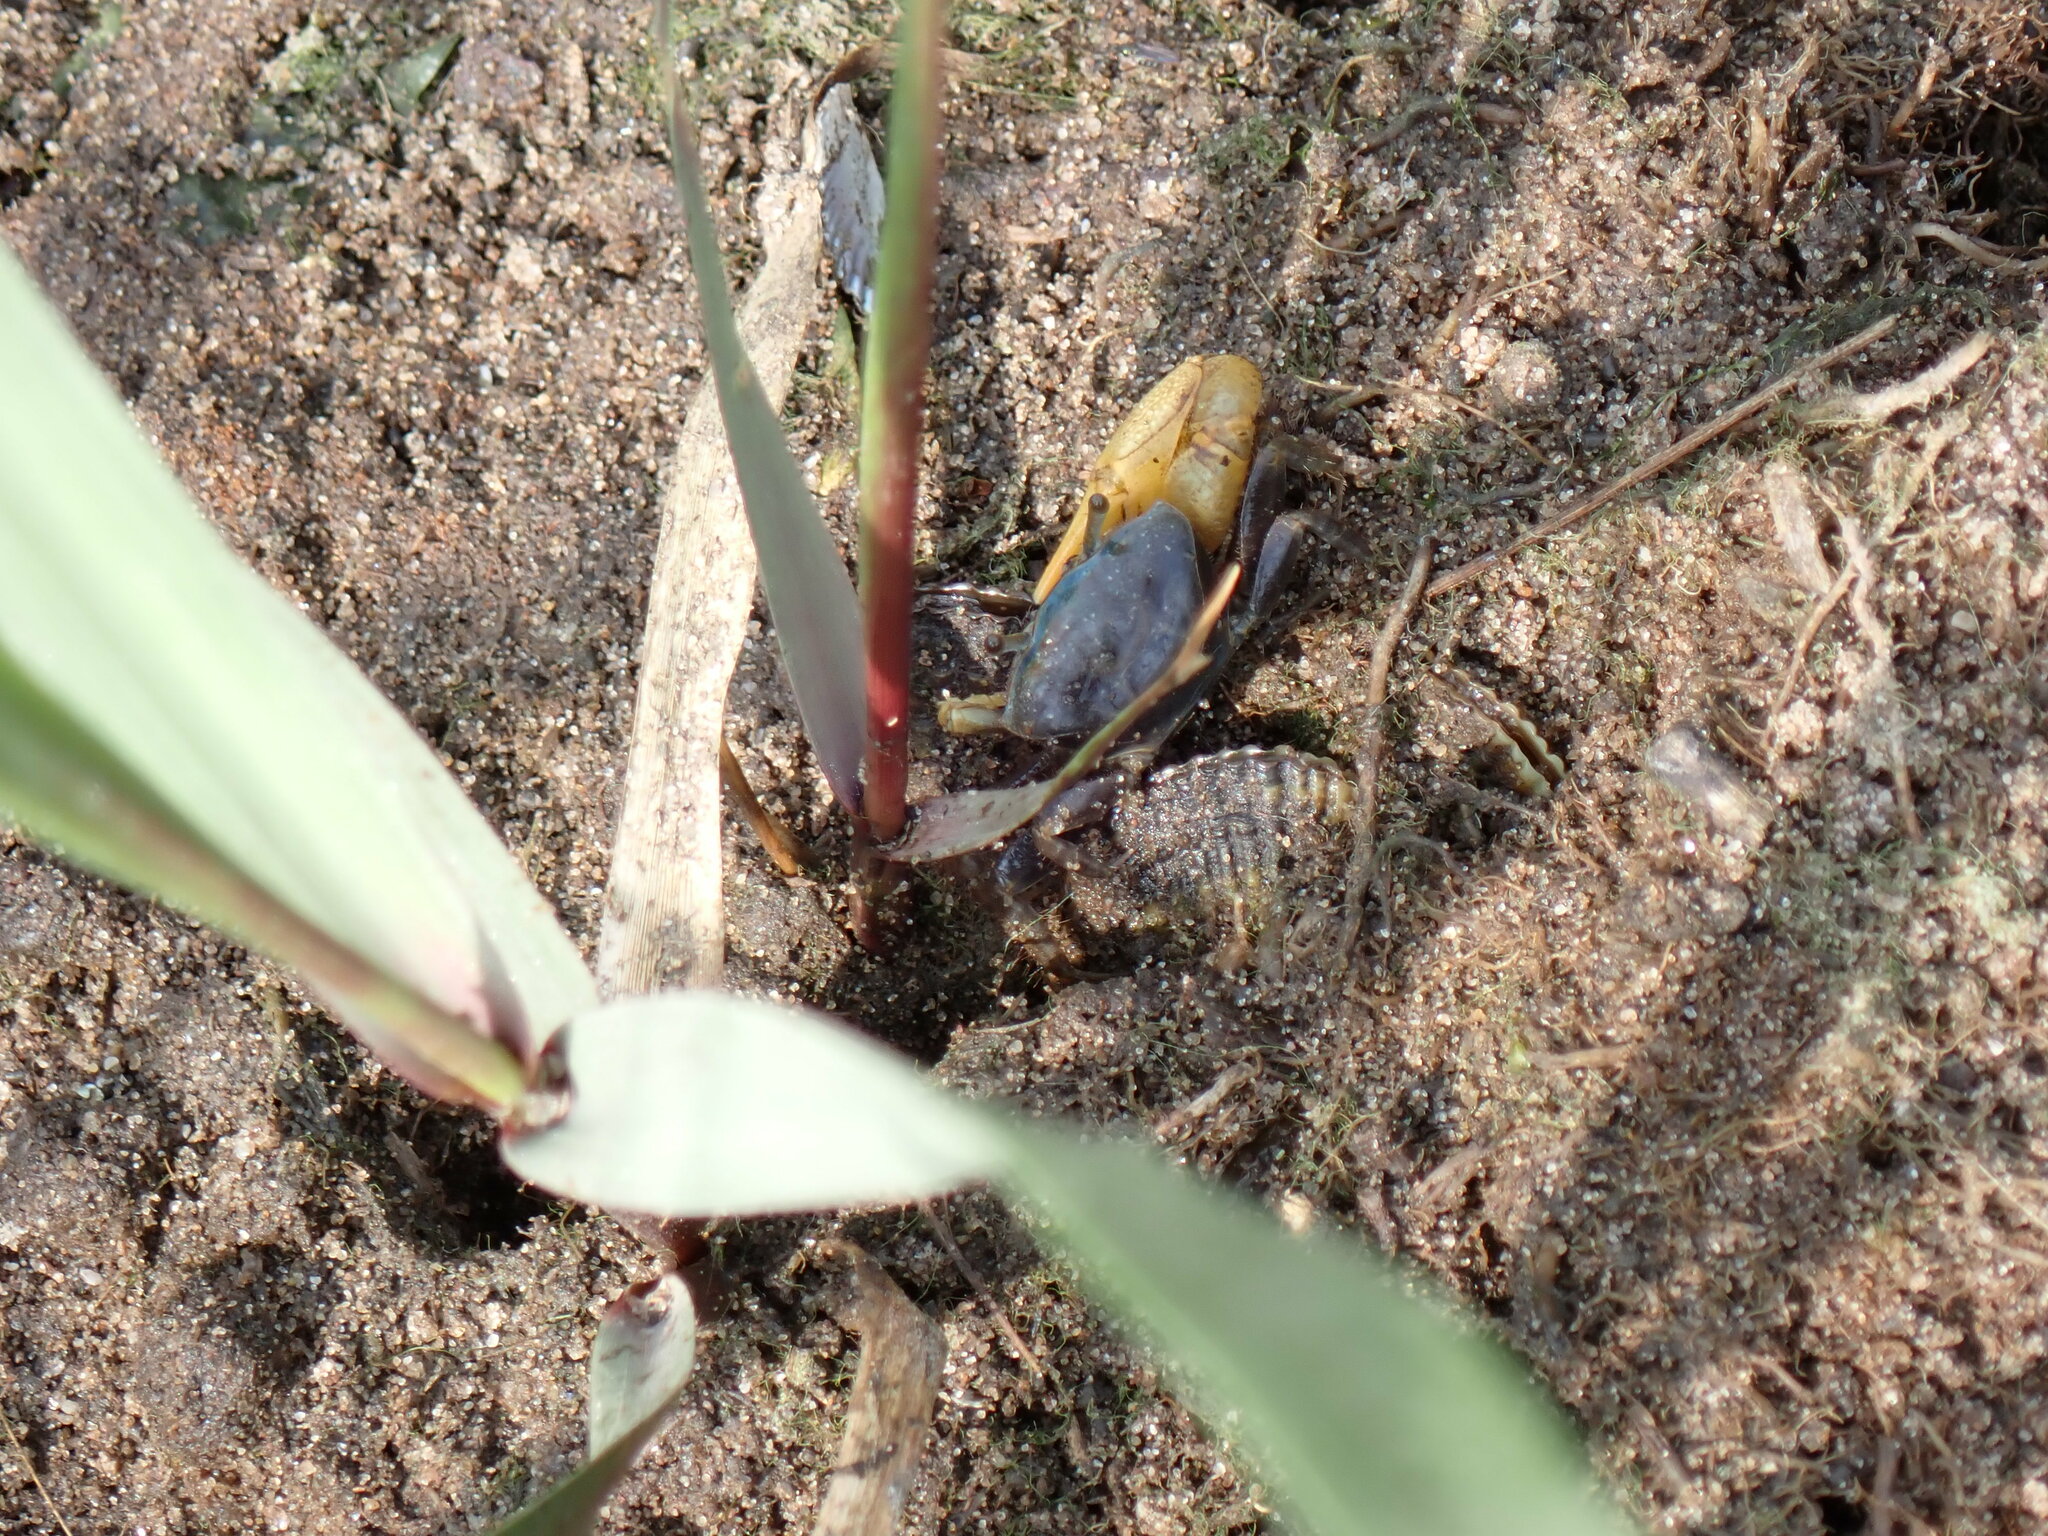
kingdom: Animalia
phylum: Arthropoda
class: Malacostraca
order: Decapoda
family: Ocypodidae
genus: Minuca
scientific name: Minuca pugnax
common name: Mud fiddler crab
